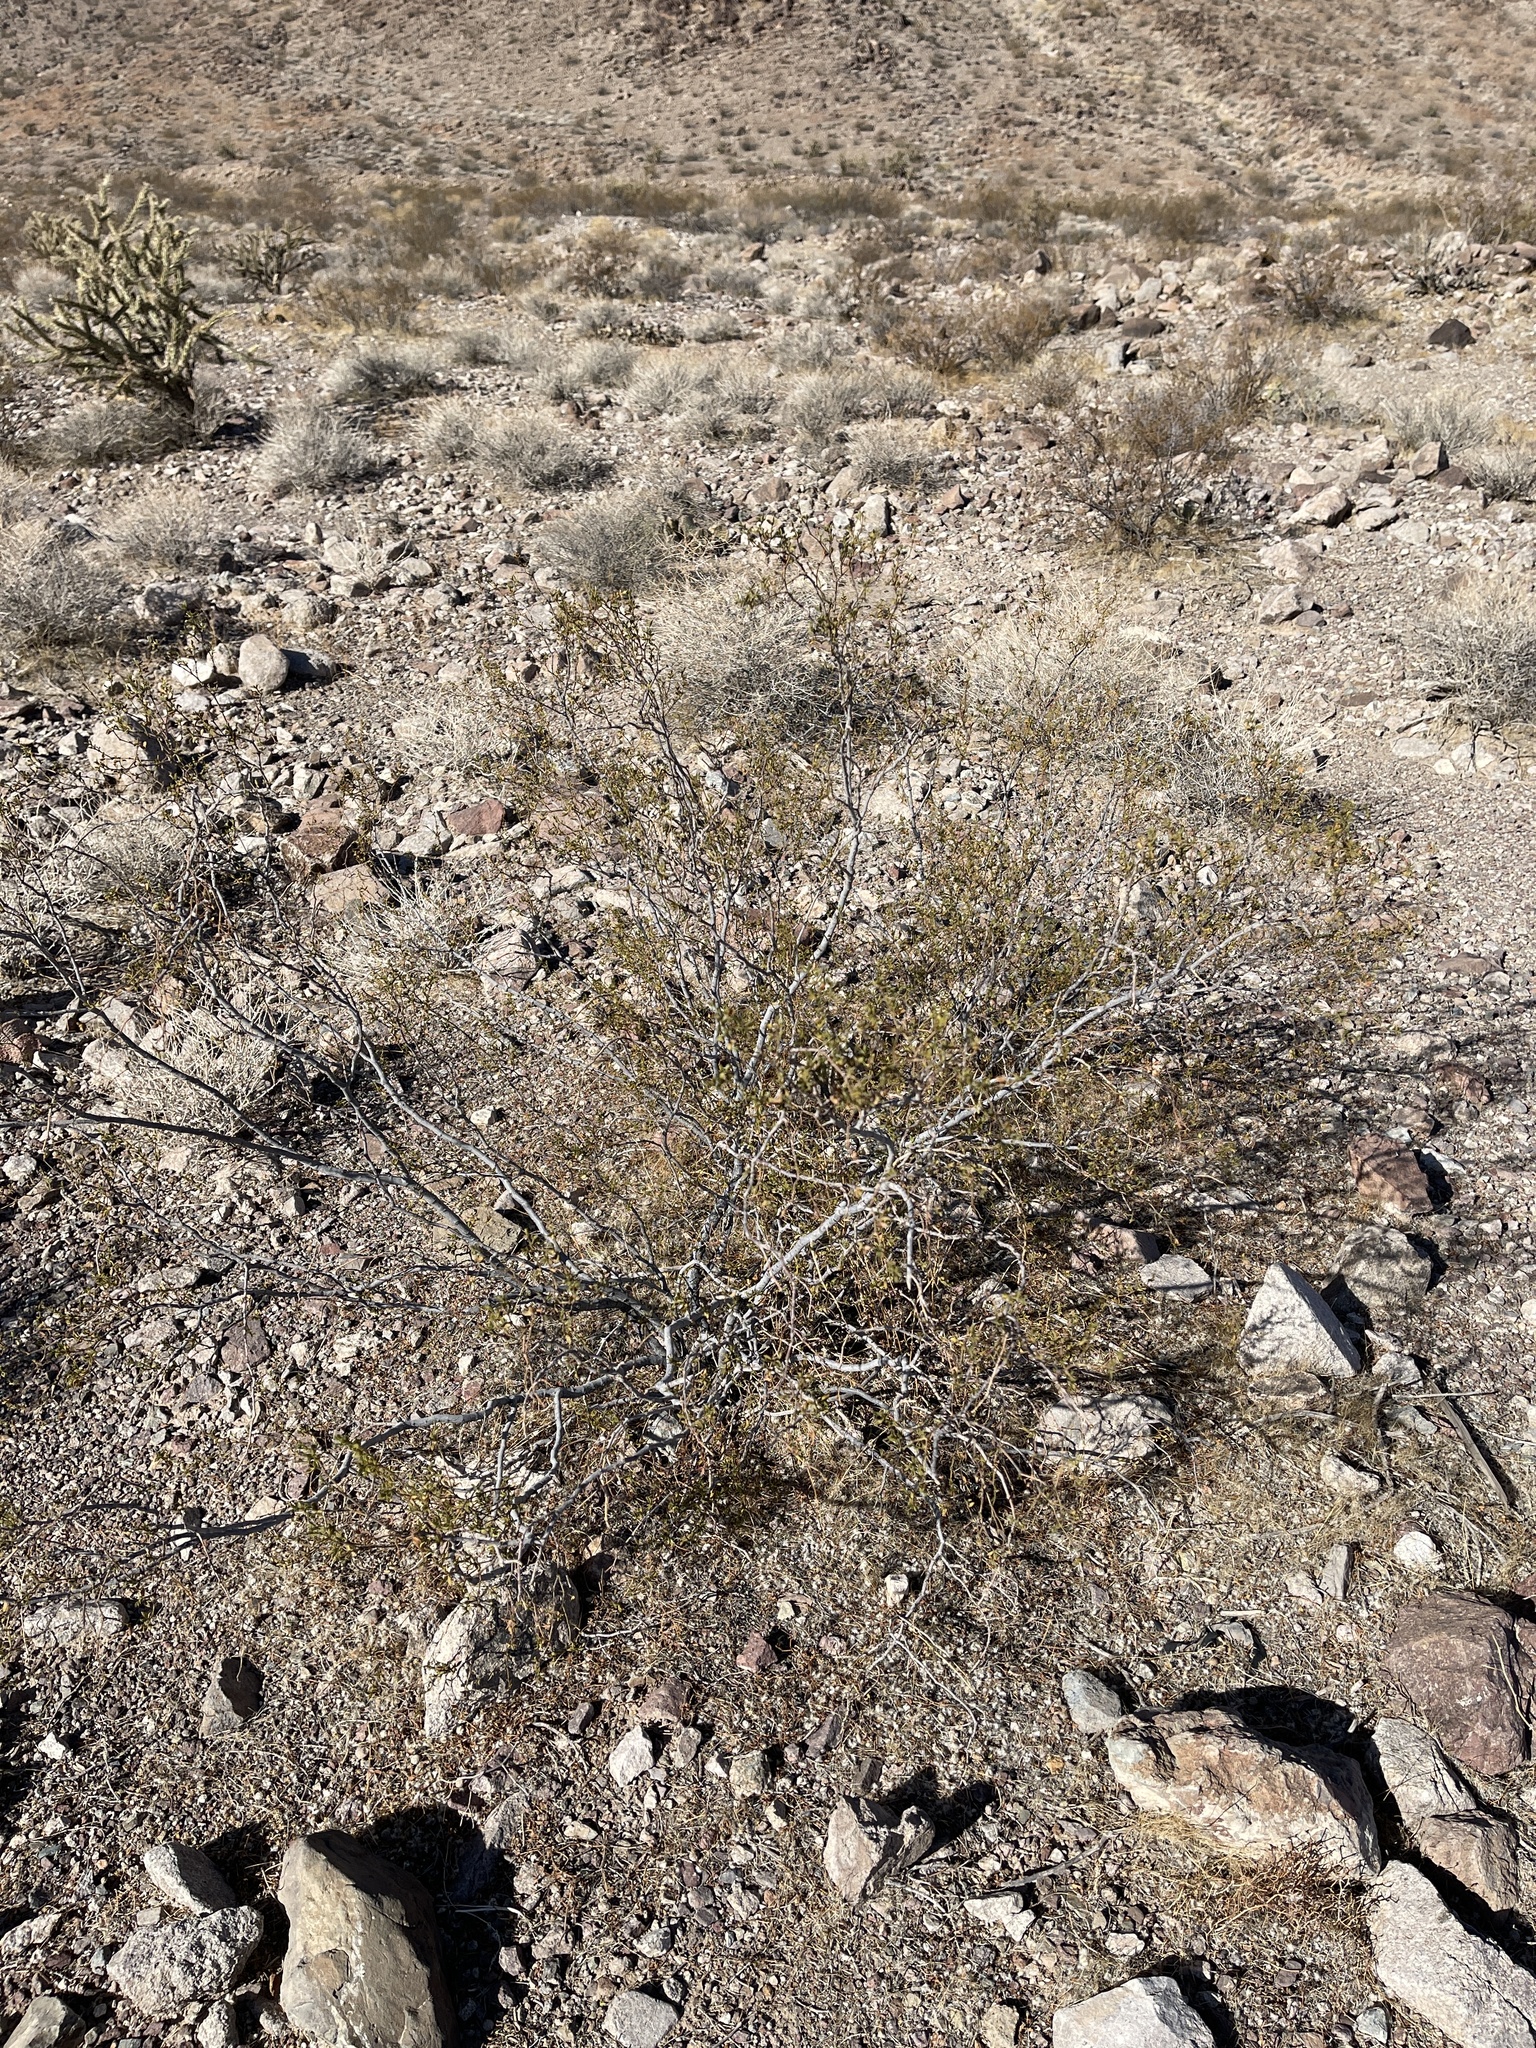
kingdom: Plantae
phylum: Tracheophyta
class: Magnoliopsida
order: Zygophyllales
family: Zygophyllaceae
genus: Larrea
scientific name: Larrea tridentata
